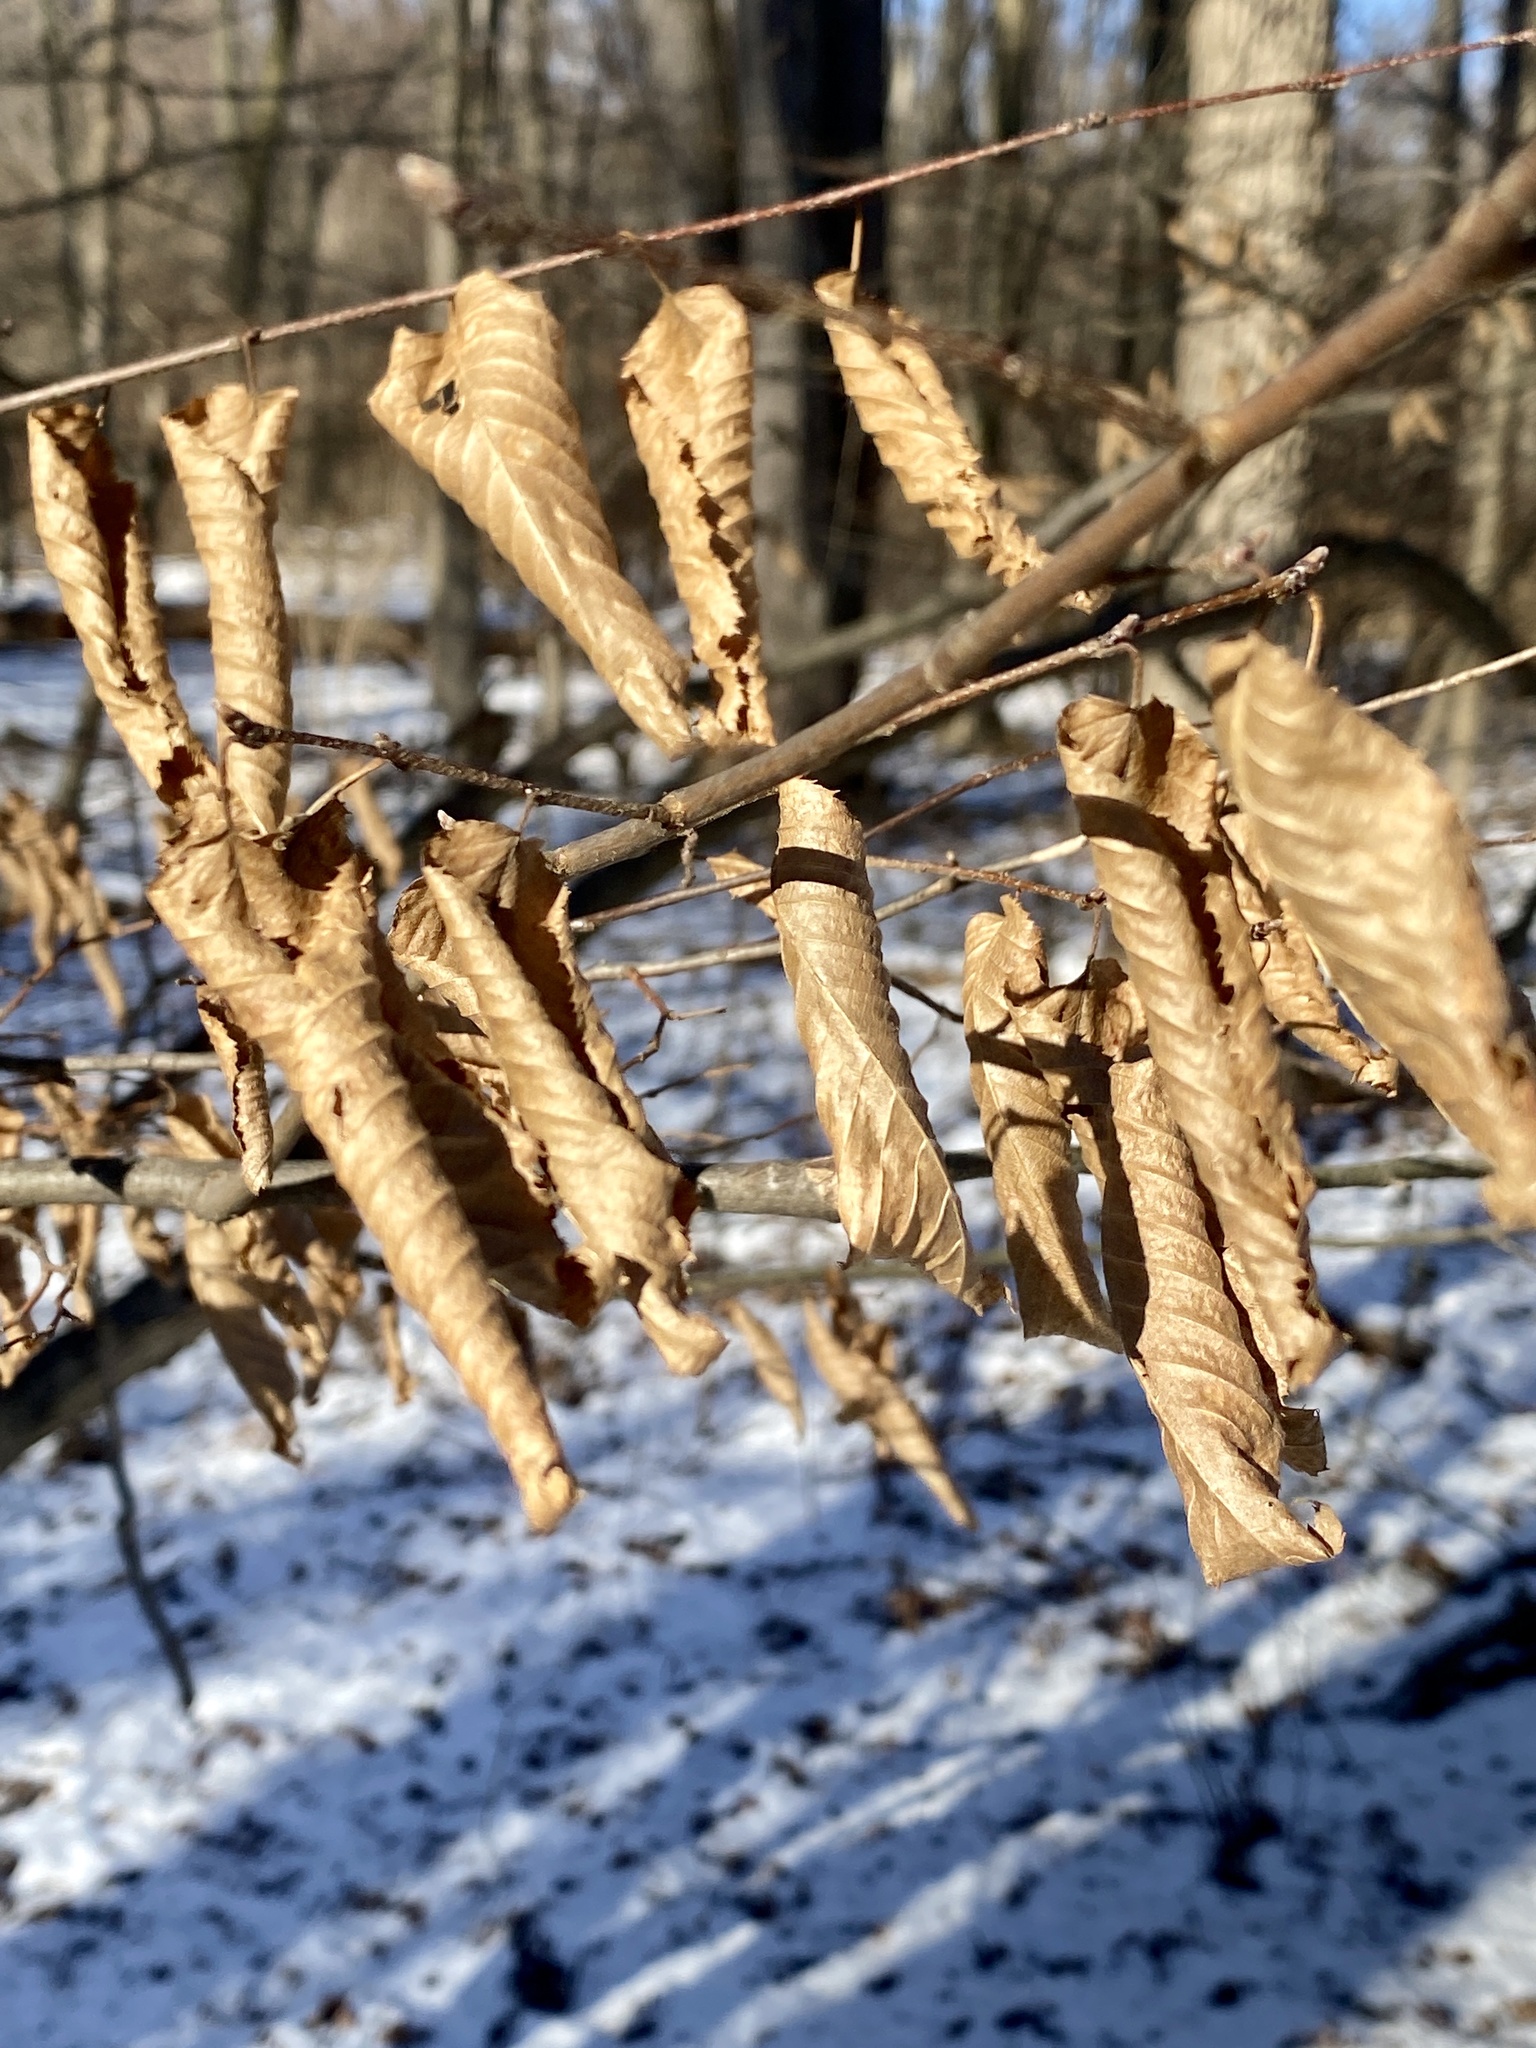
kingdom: Plantae
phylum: Tracheophyta
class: Magnoliopsida
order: Fagales
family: Betulaceae
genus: Carpinus
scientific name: Carpinus caroliniana
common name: American hornbeam
